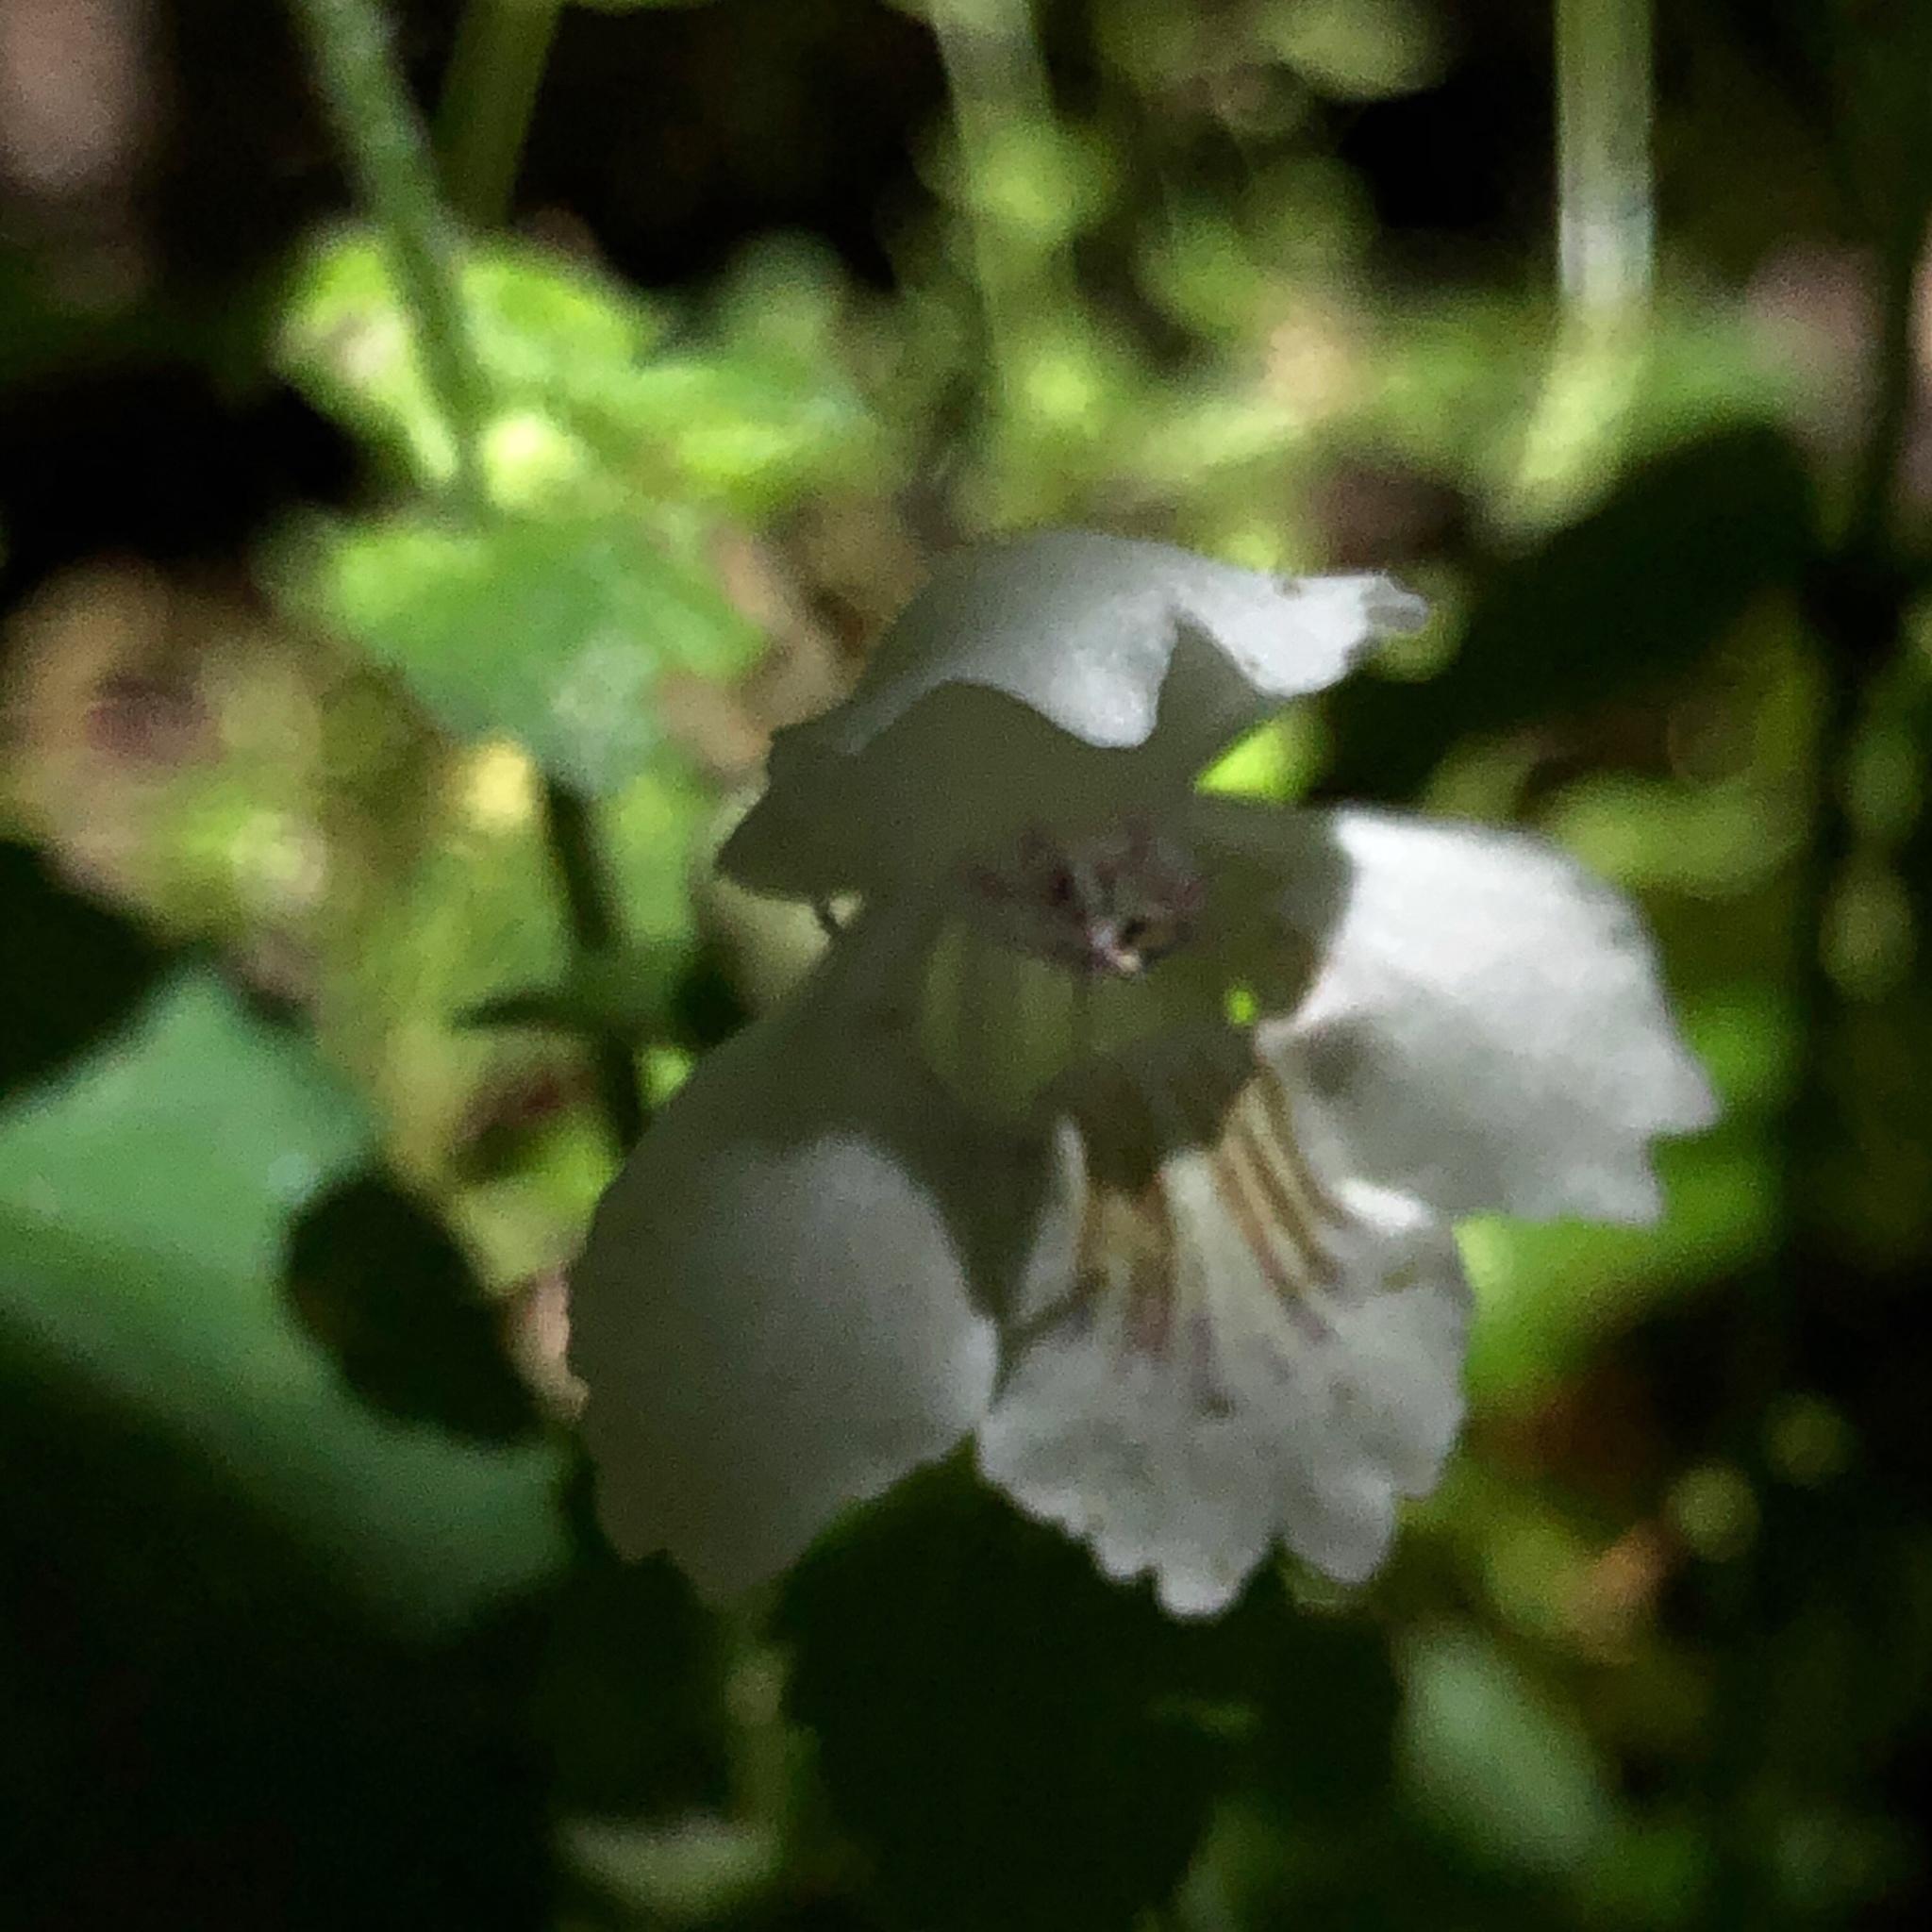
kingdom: Plantae
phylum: Tracheophyta
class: Magnoliopsida
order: Lamiales
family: Lamiaceae
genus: Synandra
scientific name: Synandra hispidula
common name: Synandra
